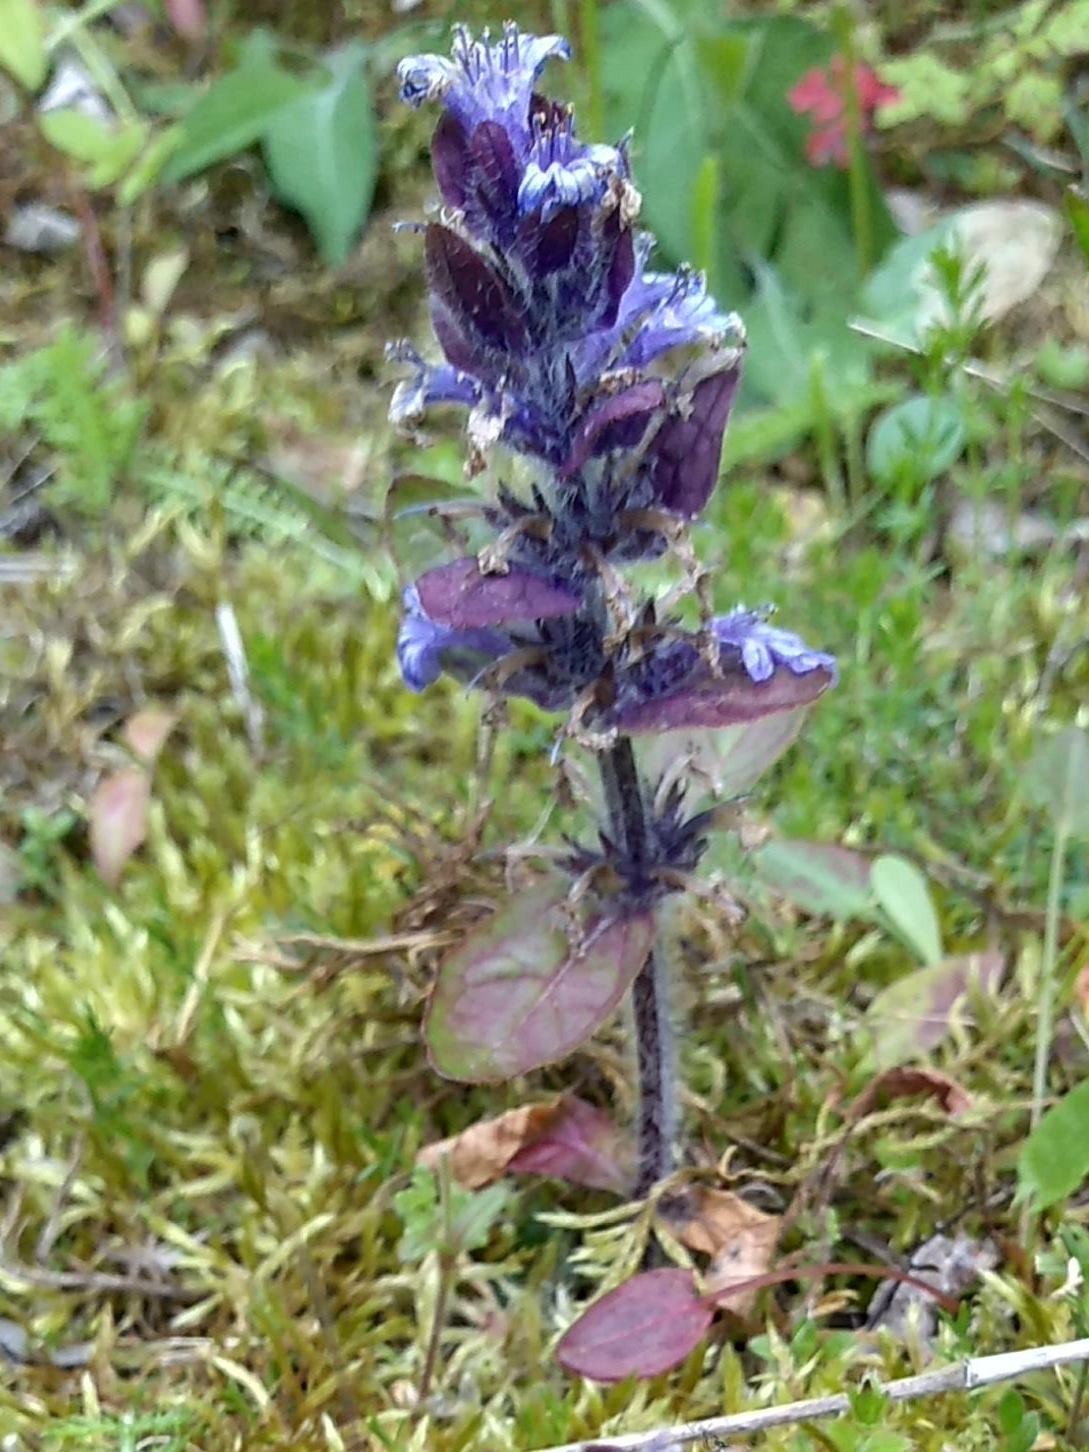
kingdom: Plantae
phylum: Tracheophyta
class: Magnoliopsida
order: Lamiales
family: Lamiaceae
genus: Ajuga
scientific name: Ajuga reptans
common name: Bugle
